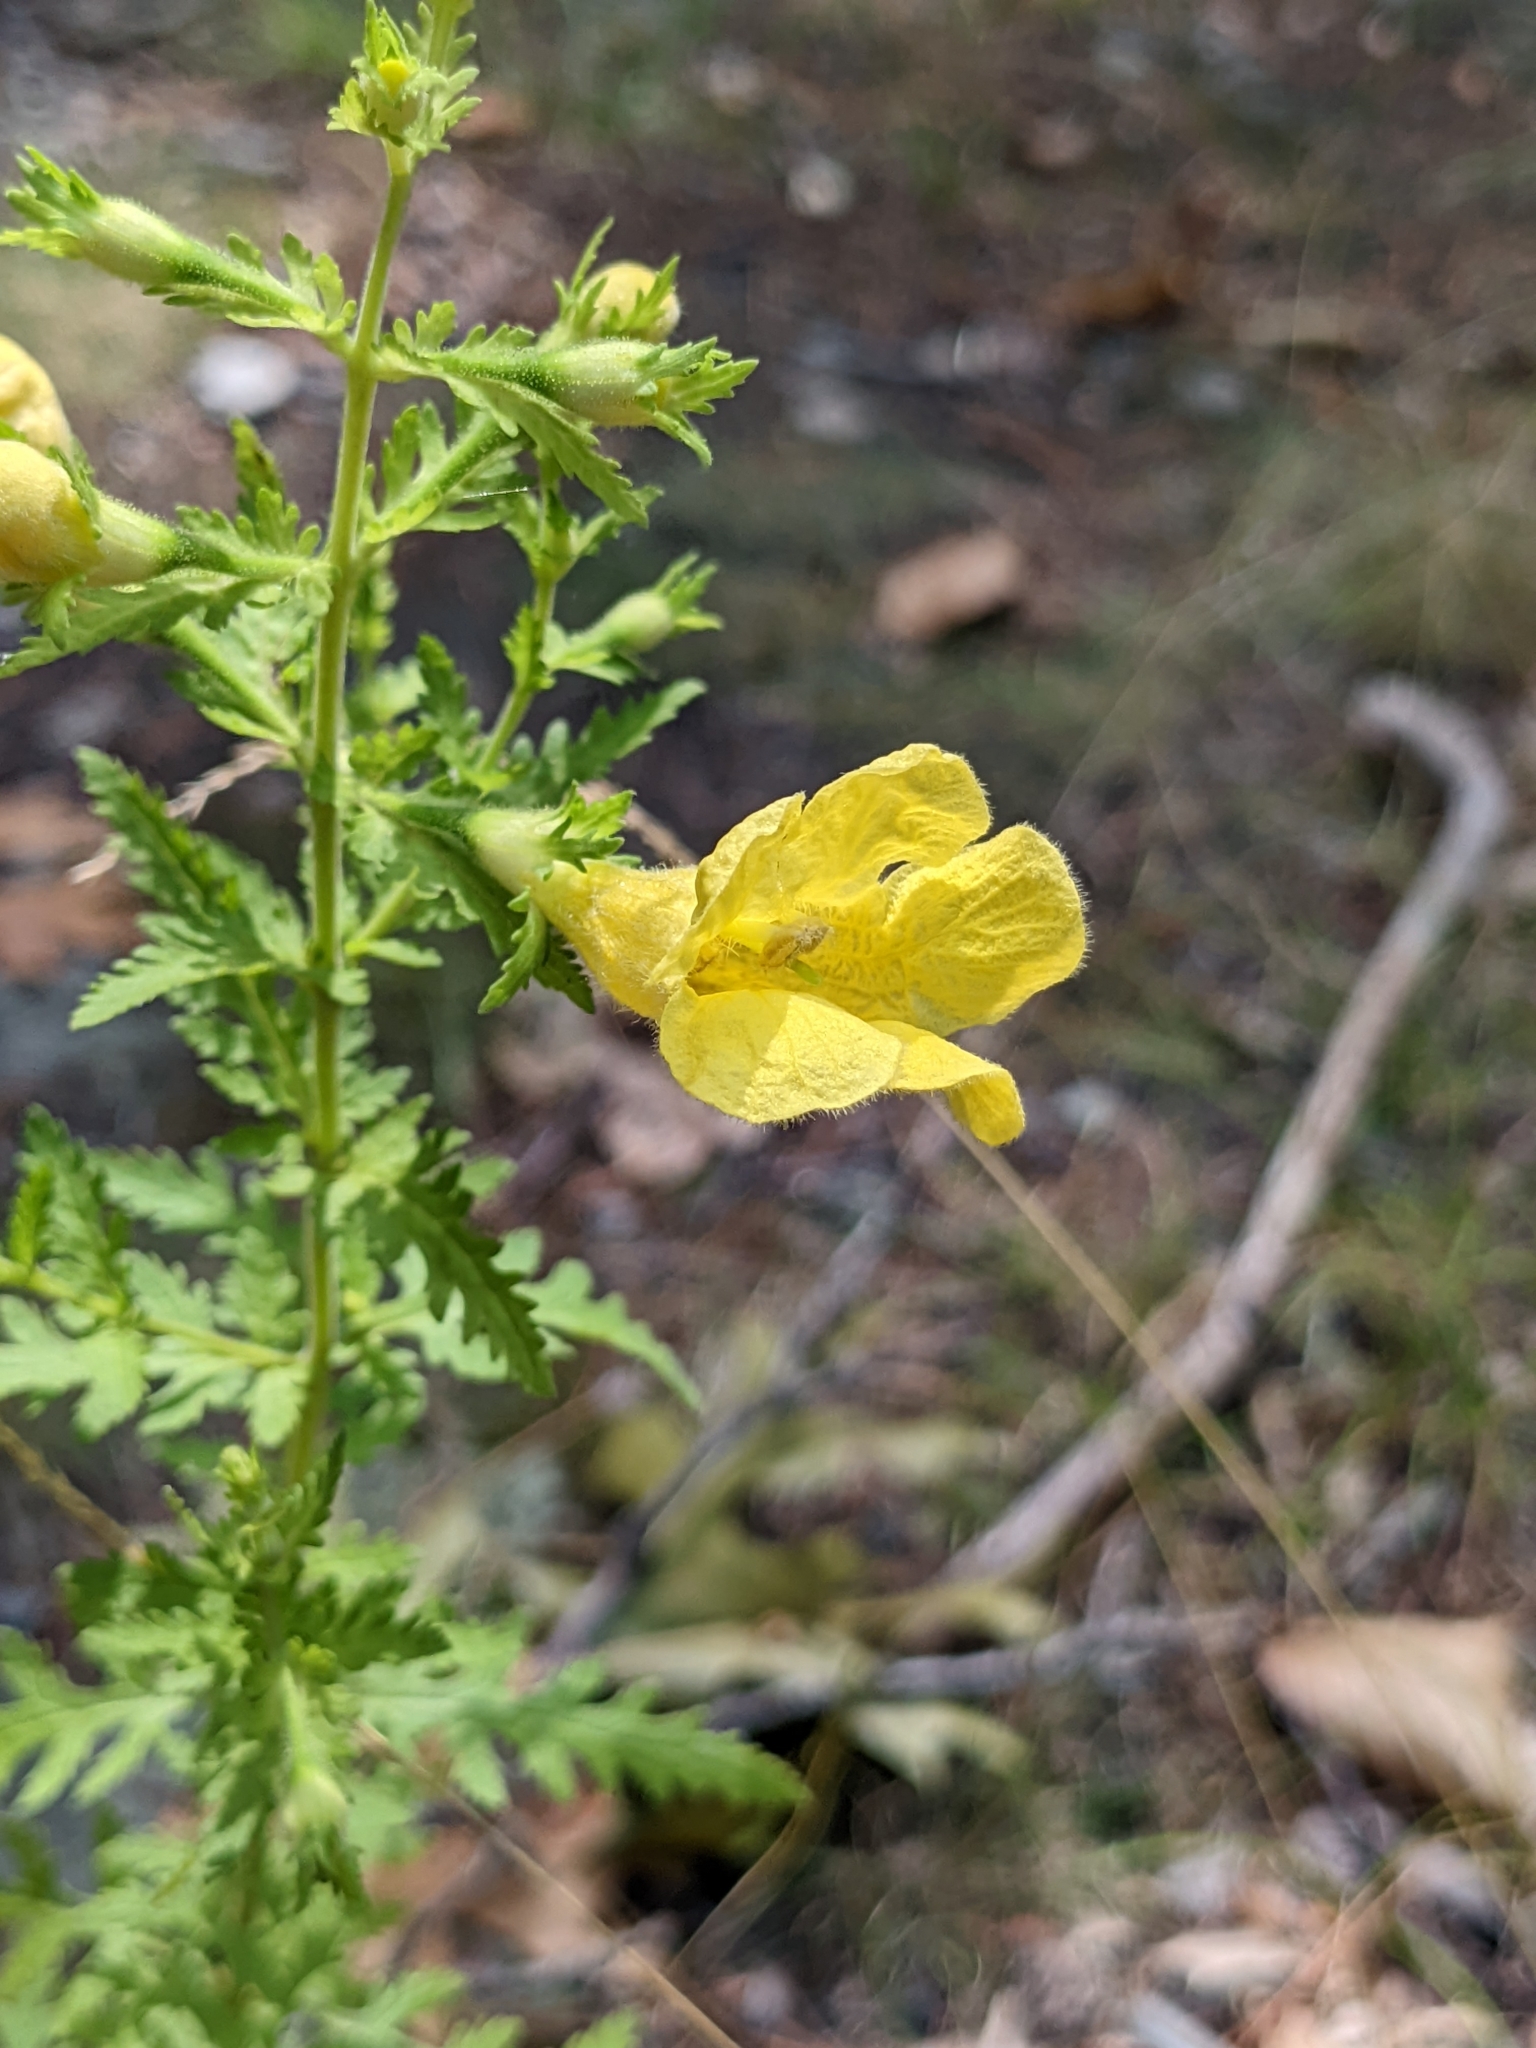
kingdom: Plantae
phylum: Tracheophyta
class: Magnoliopsida
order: Lamiales
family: Orobanchaceae
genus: Aureolaria
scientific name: Aureolaria pedicularia
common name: Annual false foxglove
